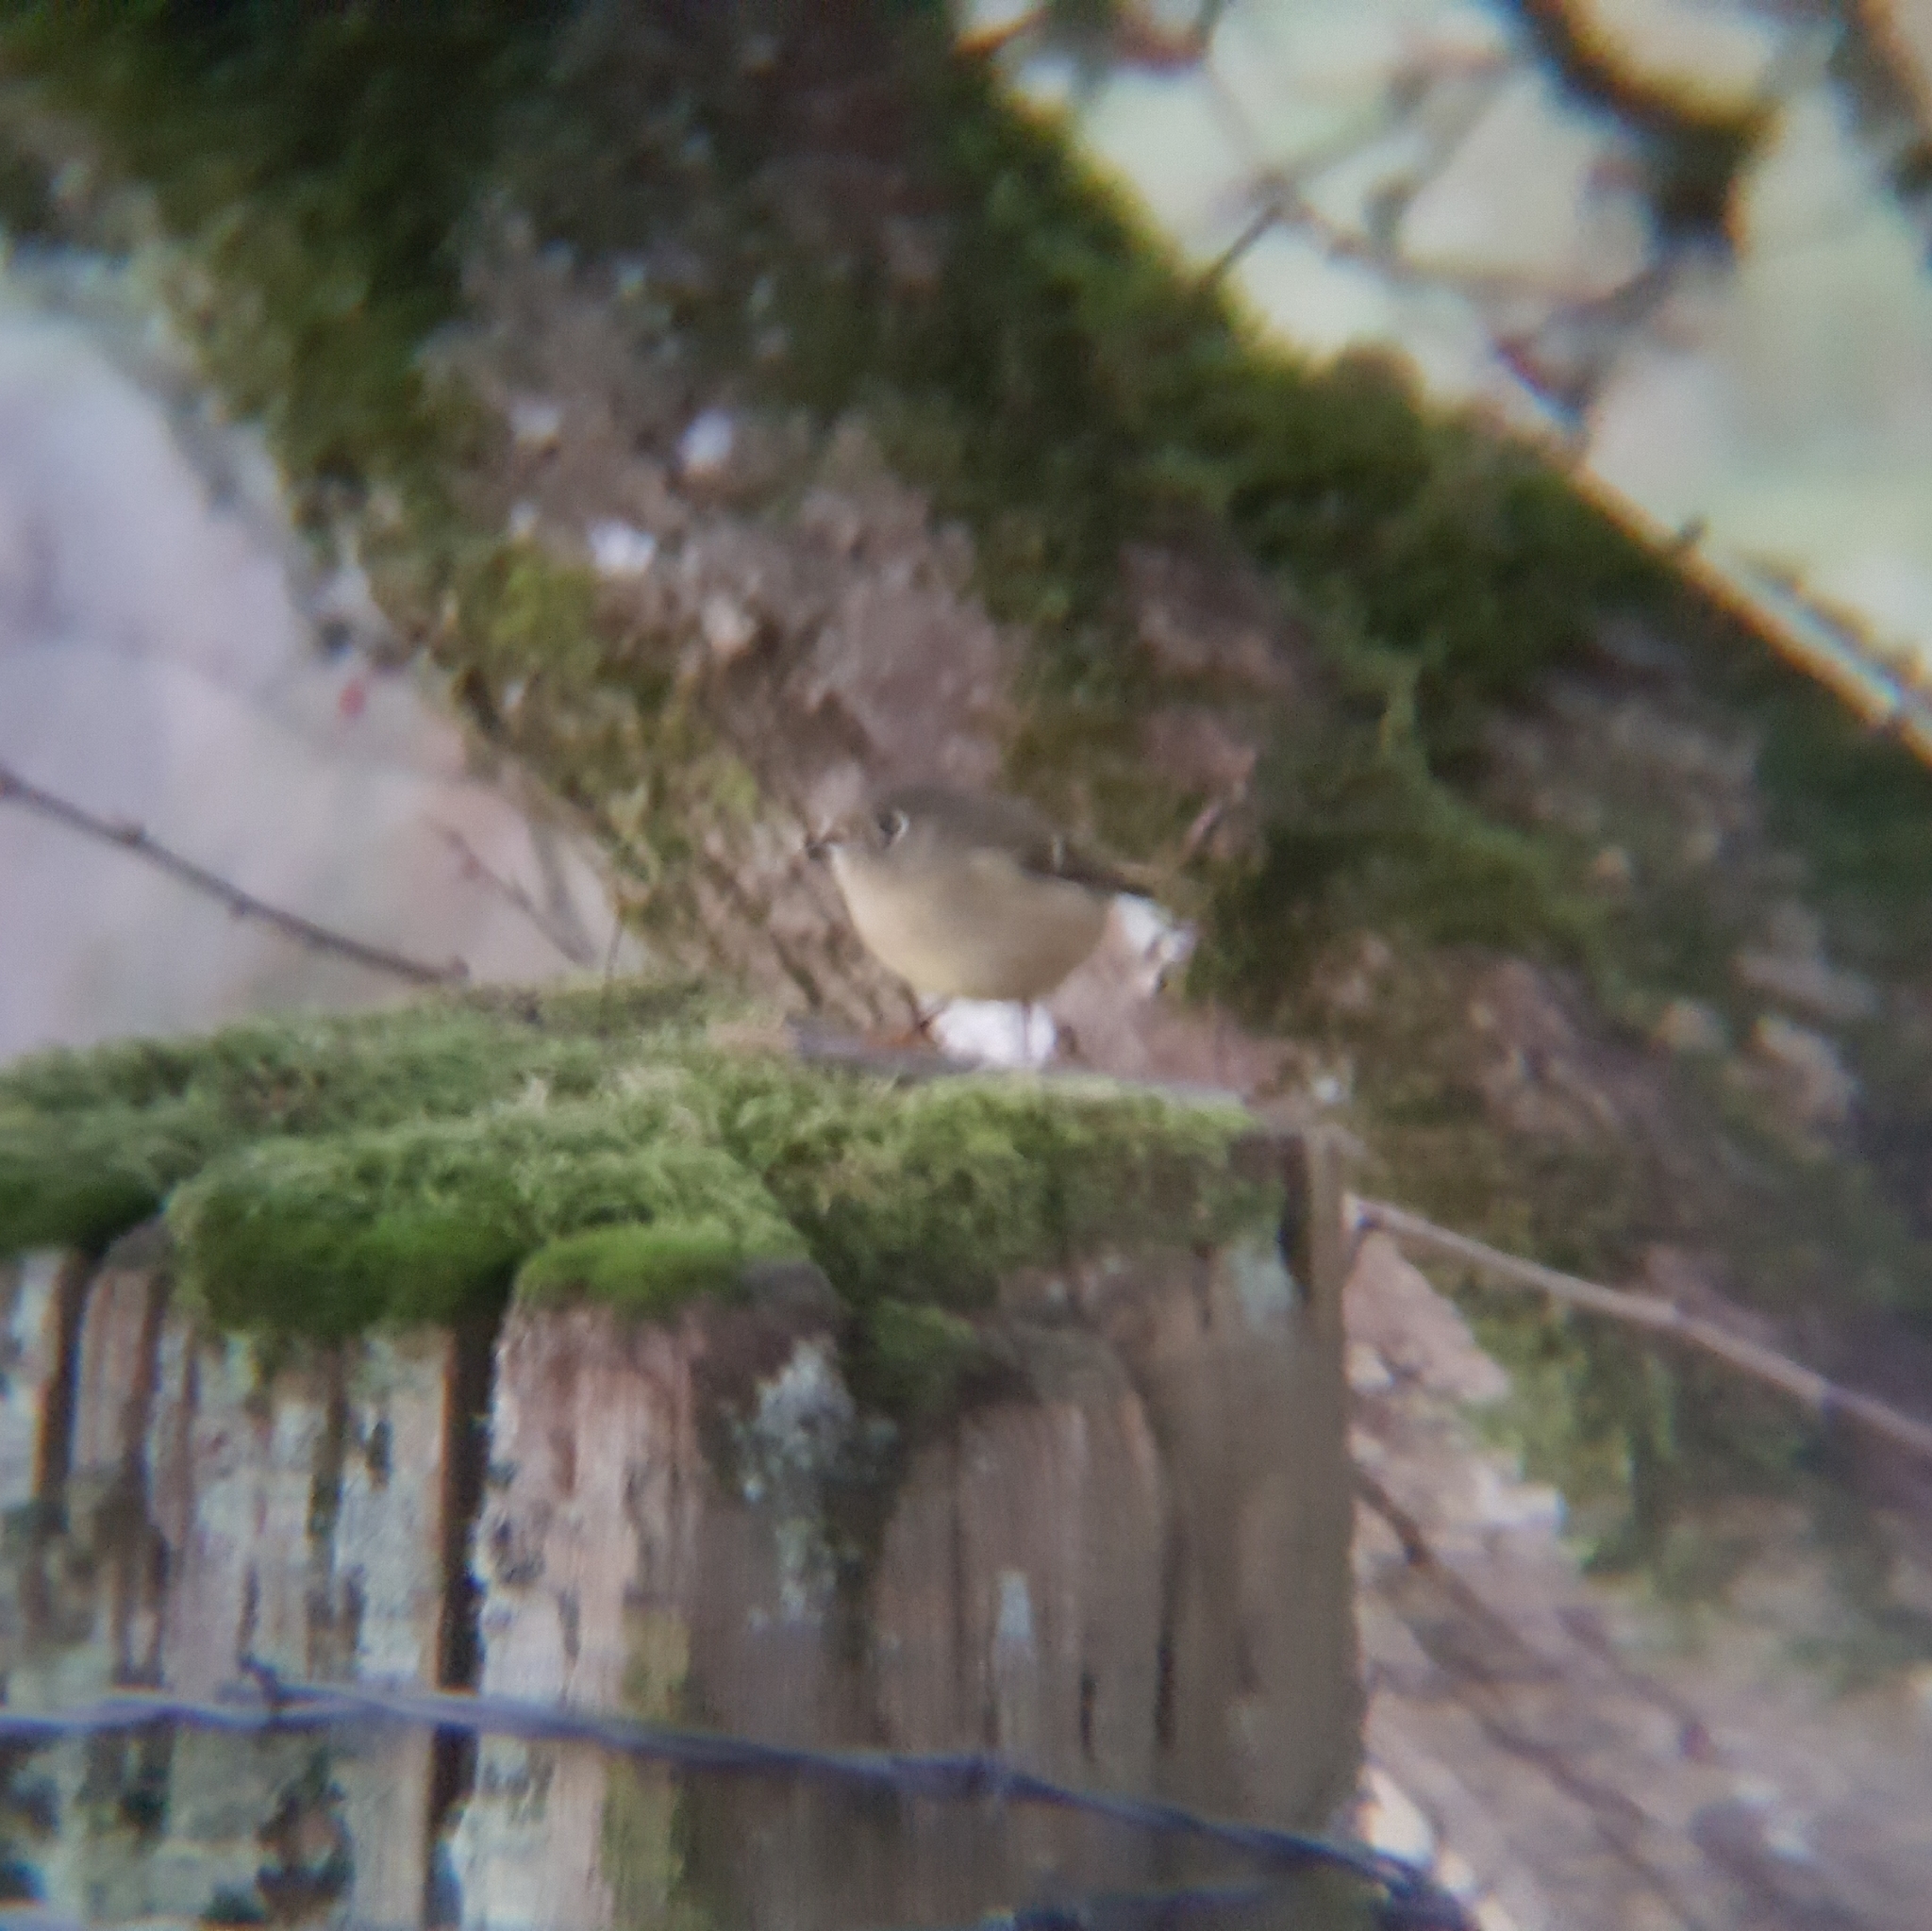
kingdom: Animalia
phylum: Chordata
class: Aves
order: Passeriformes
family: Regulidae
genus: Regulus
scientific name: Regulus calendula
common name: Ruby-crowned kinglet
